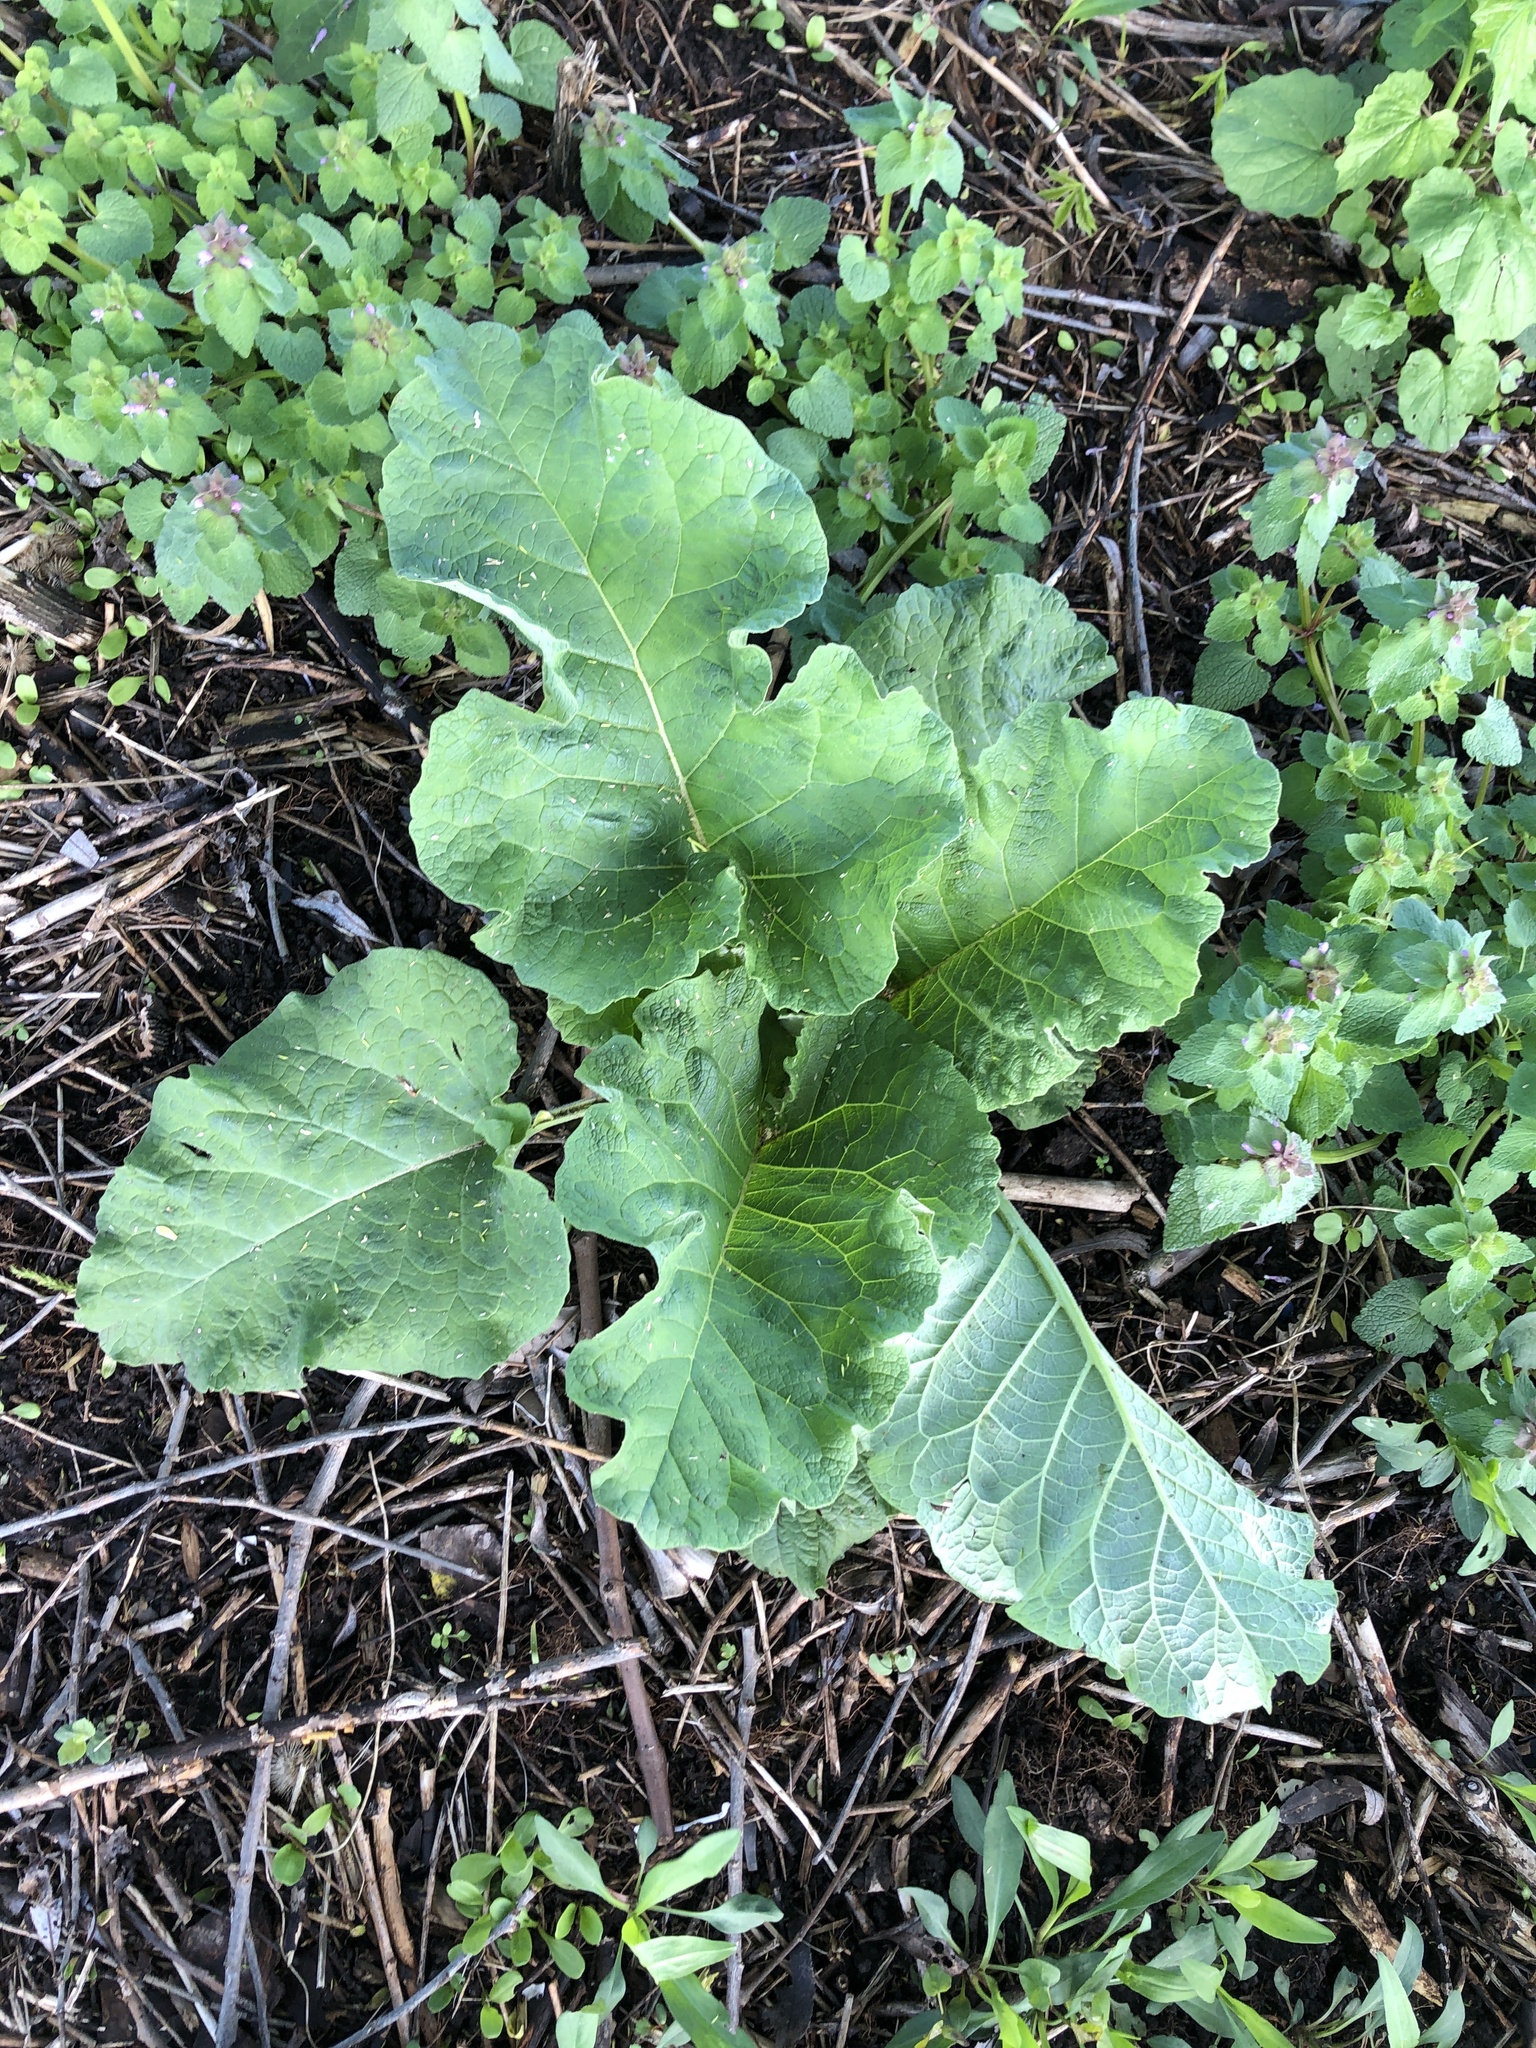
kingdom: Plantae
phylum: Tracheophyta
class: Magnoliopsida
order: Asterales
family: Asteraceae
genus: Arctium
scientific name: Arctium
